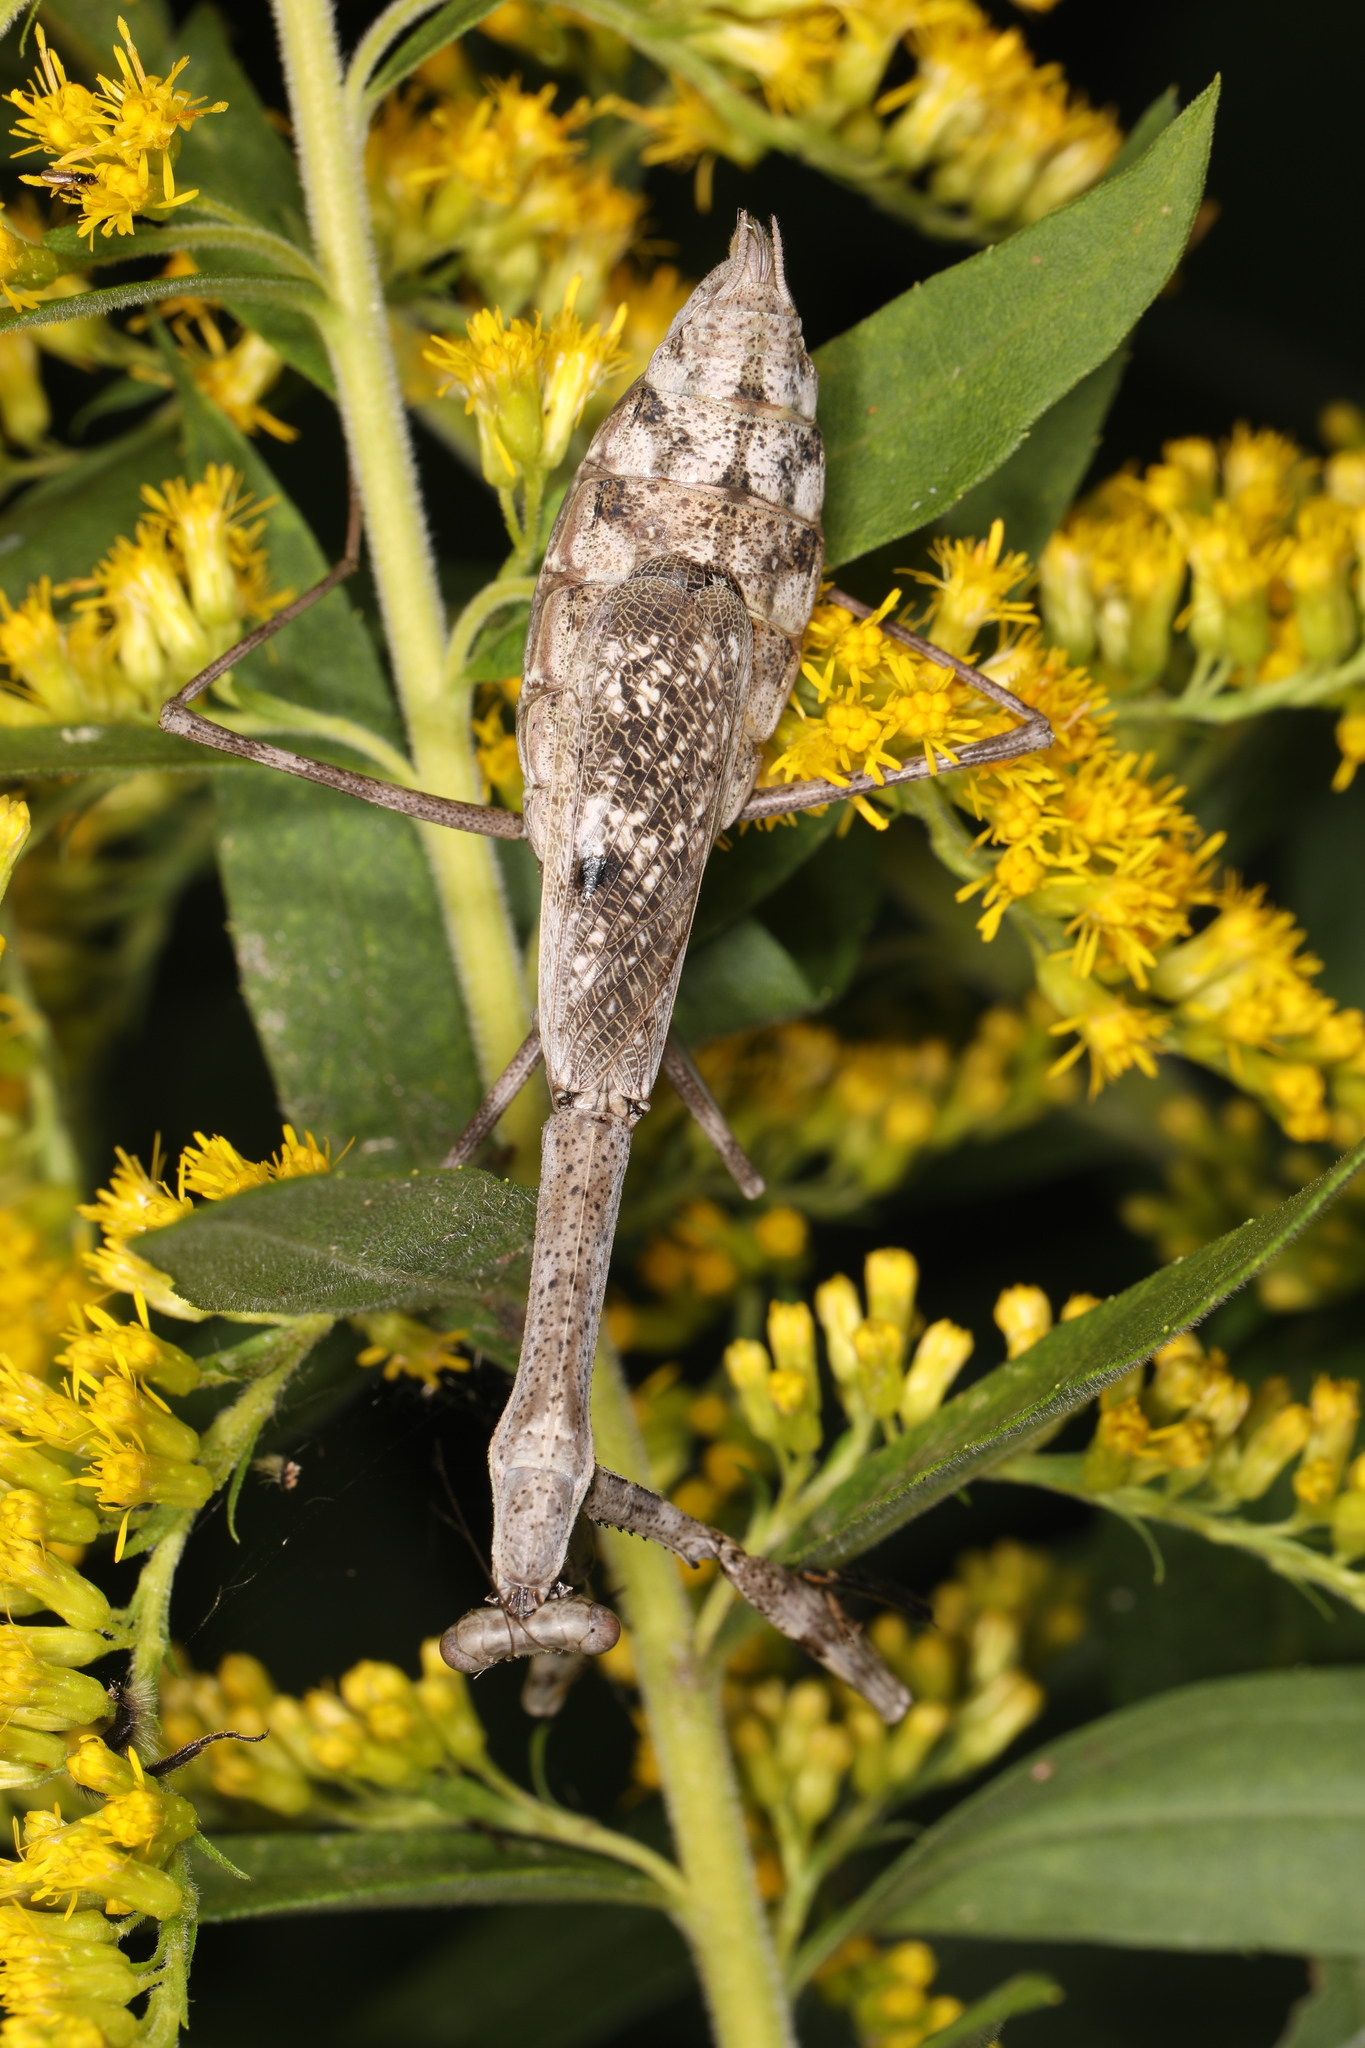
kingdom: Animalia
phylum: Arthropoda
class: Insecta
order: Mantodea
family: Mantidae
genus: Stagmomantis
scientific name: Stagmomantis carolina
